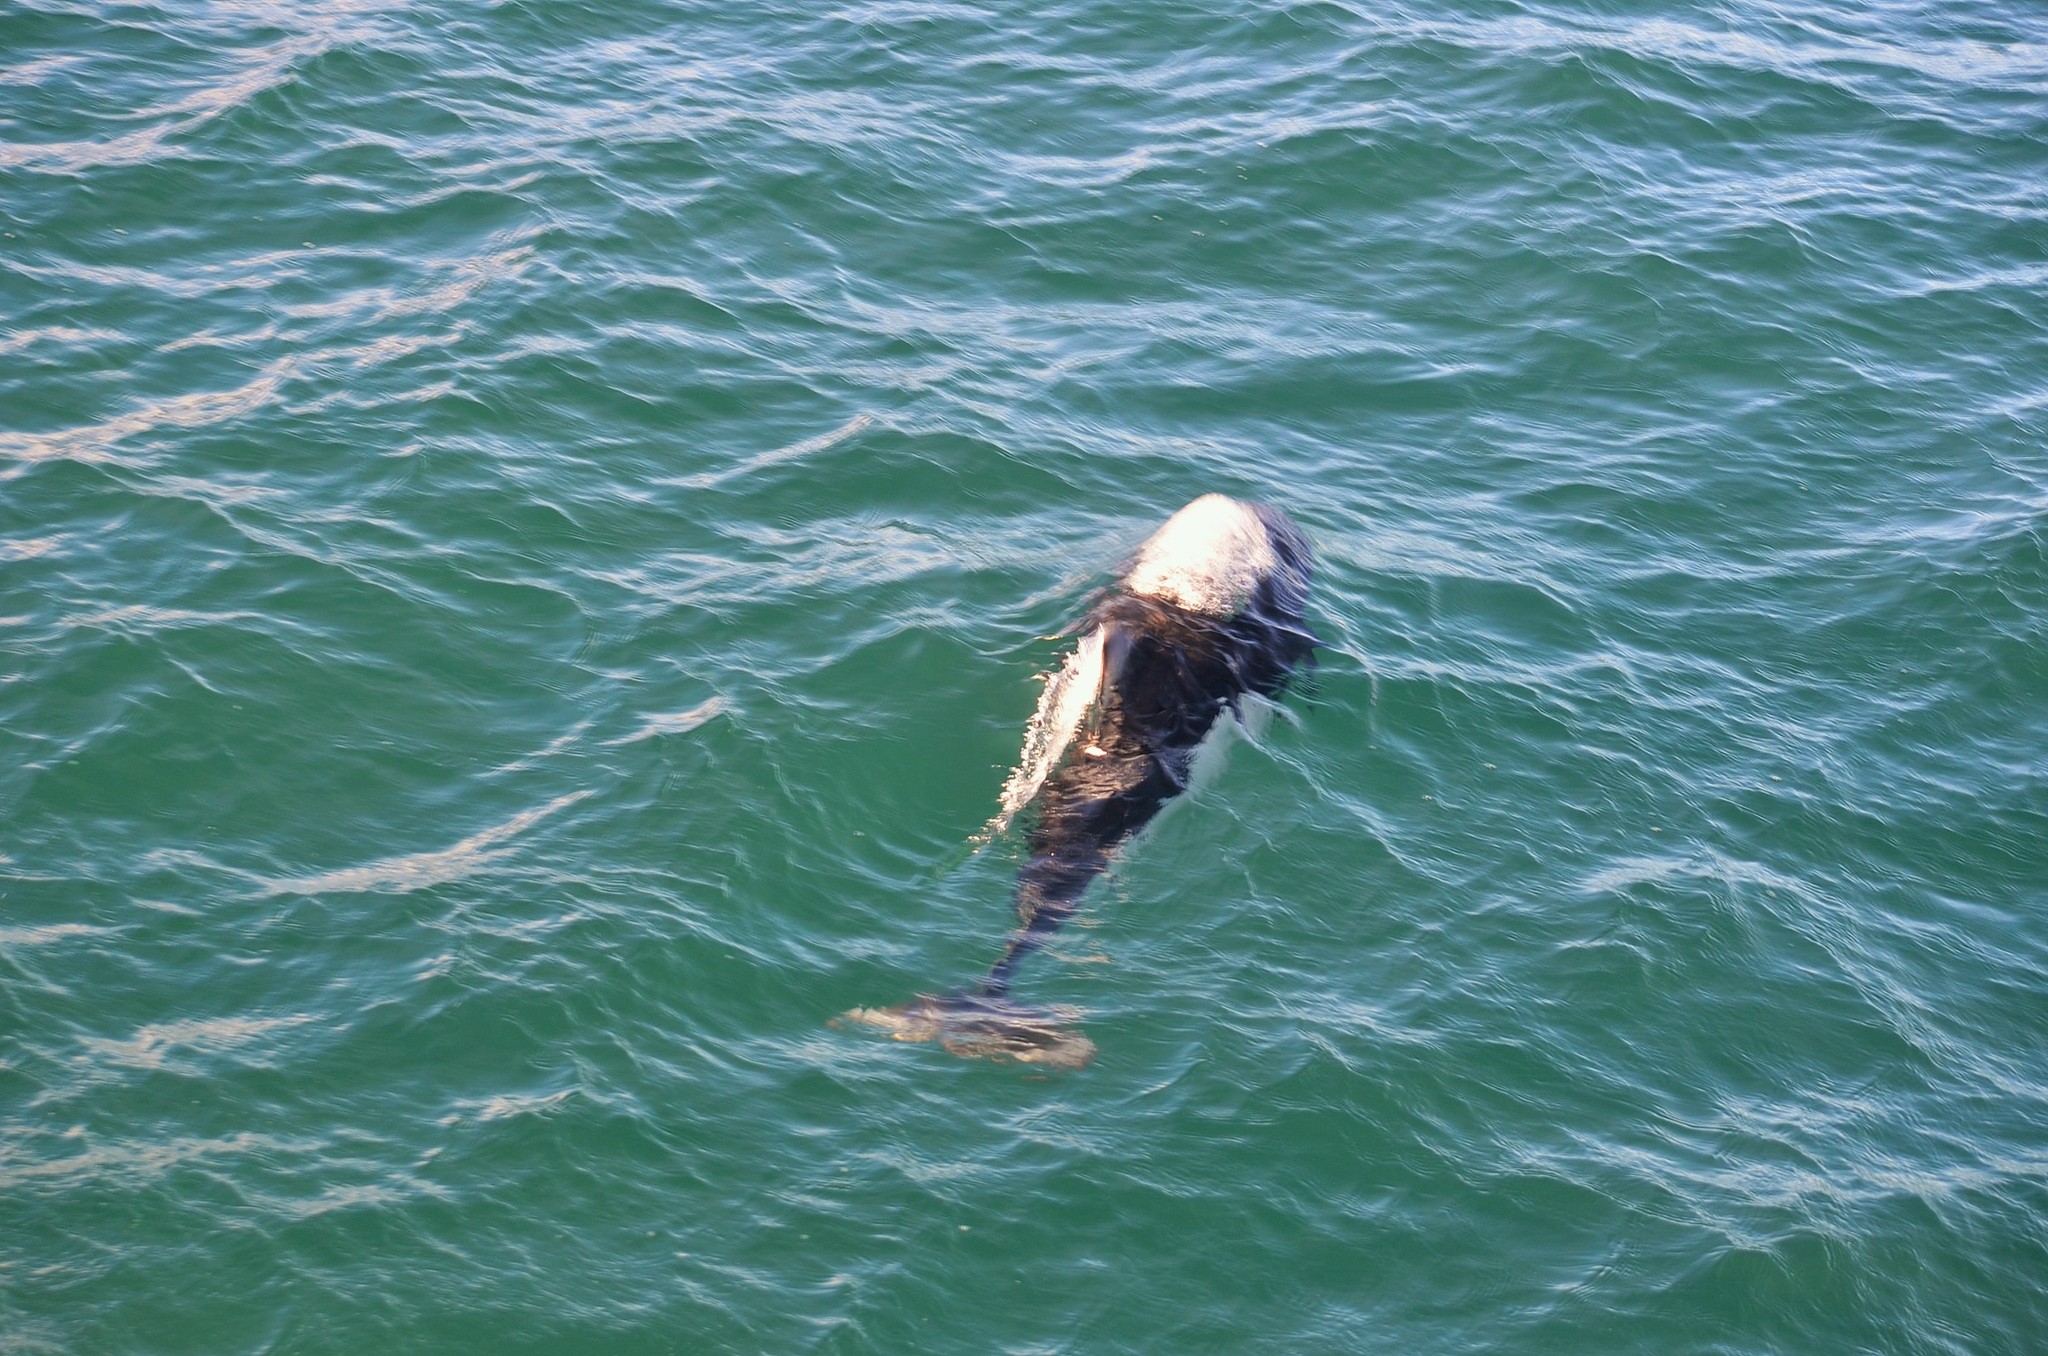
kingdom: Animalia
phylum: Chordata
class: Mammalia
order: Cetacea
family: Phocoenidae
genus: Phocoenoides
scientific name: Phocoenoides dalli
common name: Dall's porpoise
